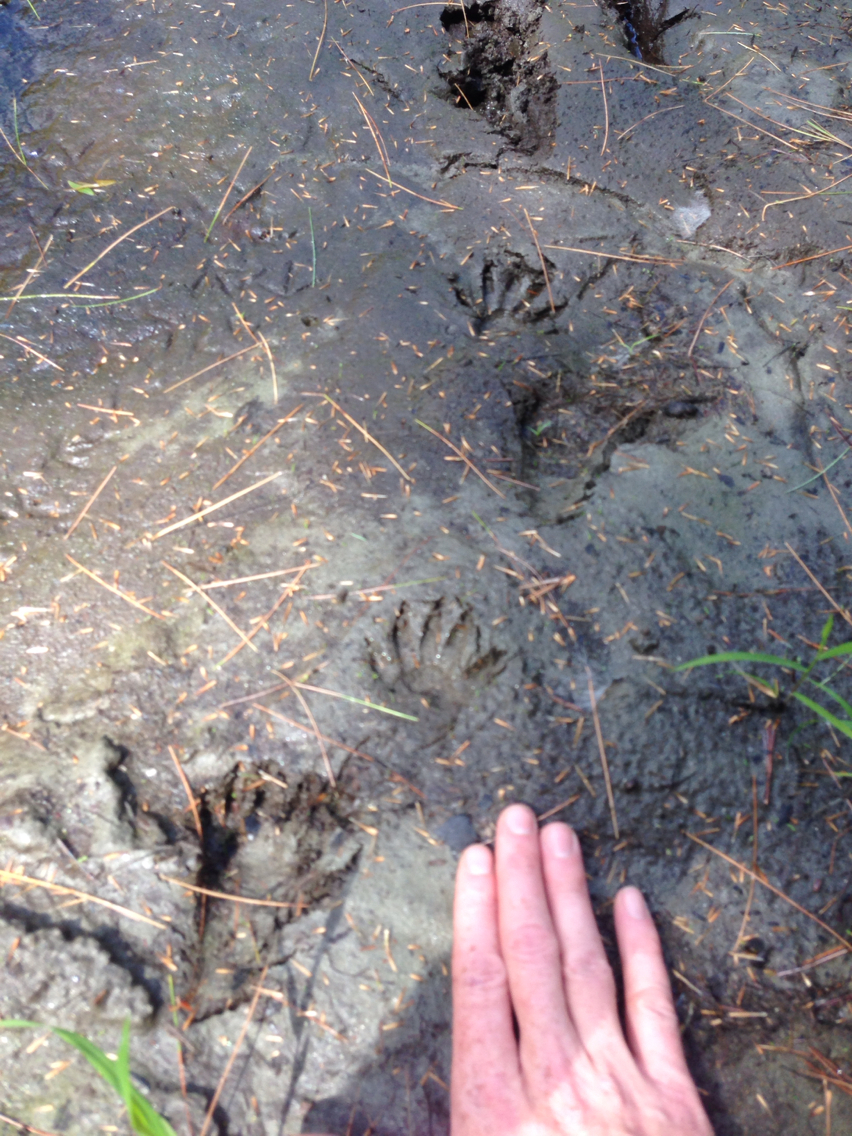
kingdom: Animalia
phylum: Chordata
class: Mammalia
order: Carnivora
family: Procyonidae
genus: Procyon
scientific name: Procyon lotor
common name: Raccoon
